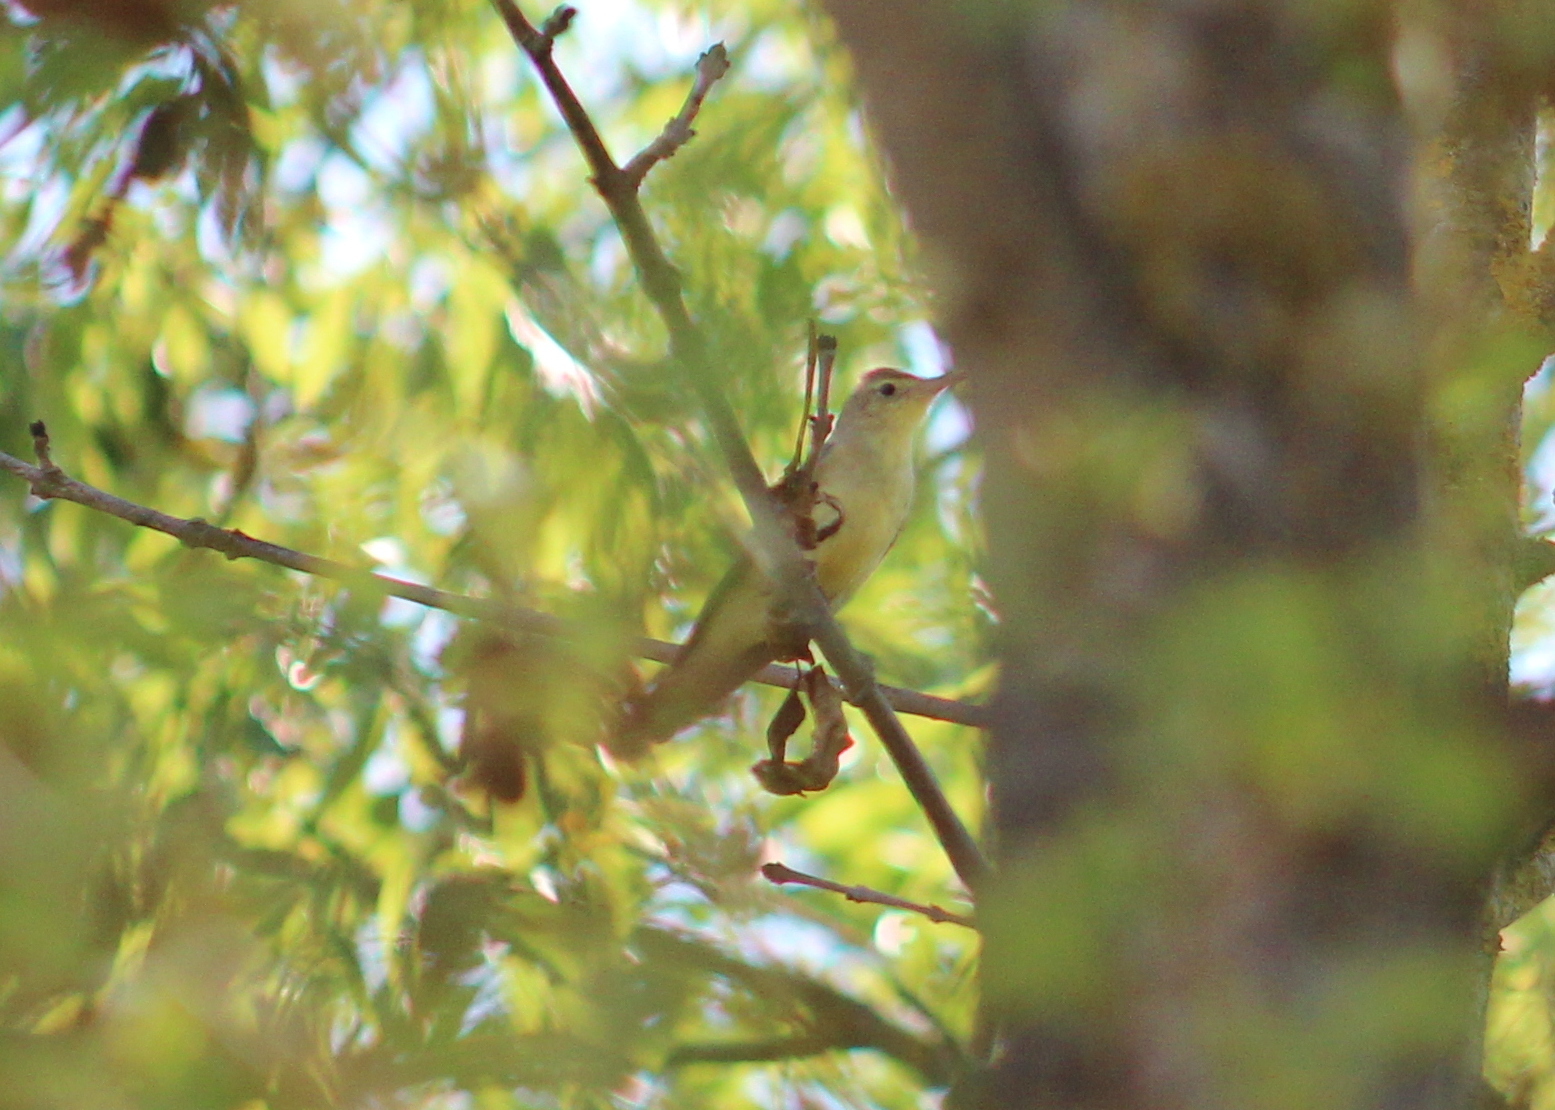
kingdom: Animalia
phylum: Chordata
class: Aves
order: Passeriformes
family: Acrocephalidae
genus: Hippolais
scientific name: Hippolais icterina
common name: Icterine warbler
